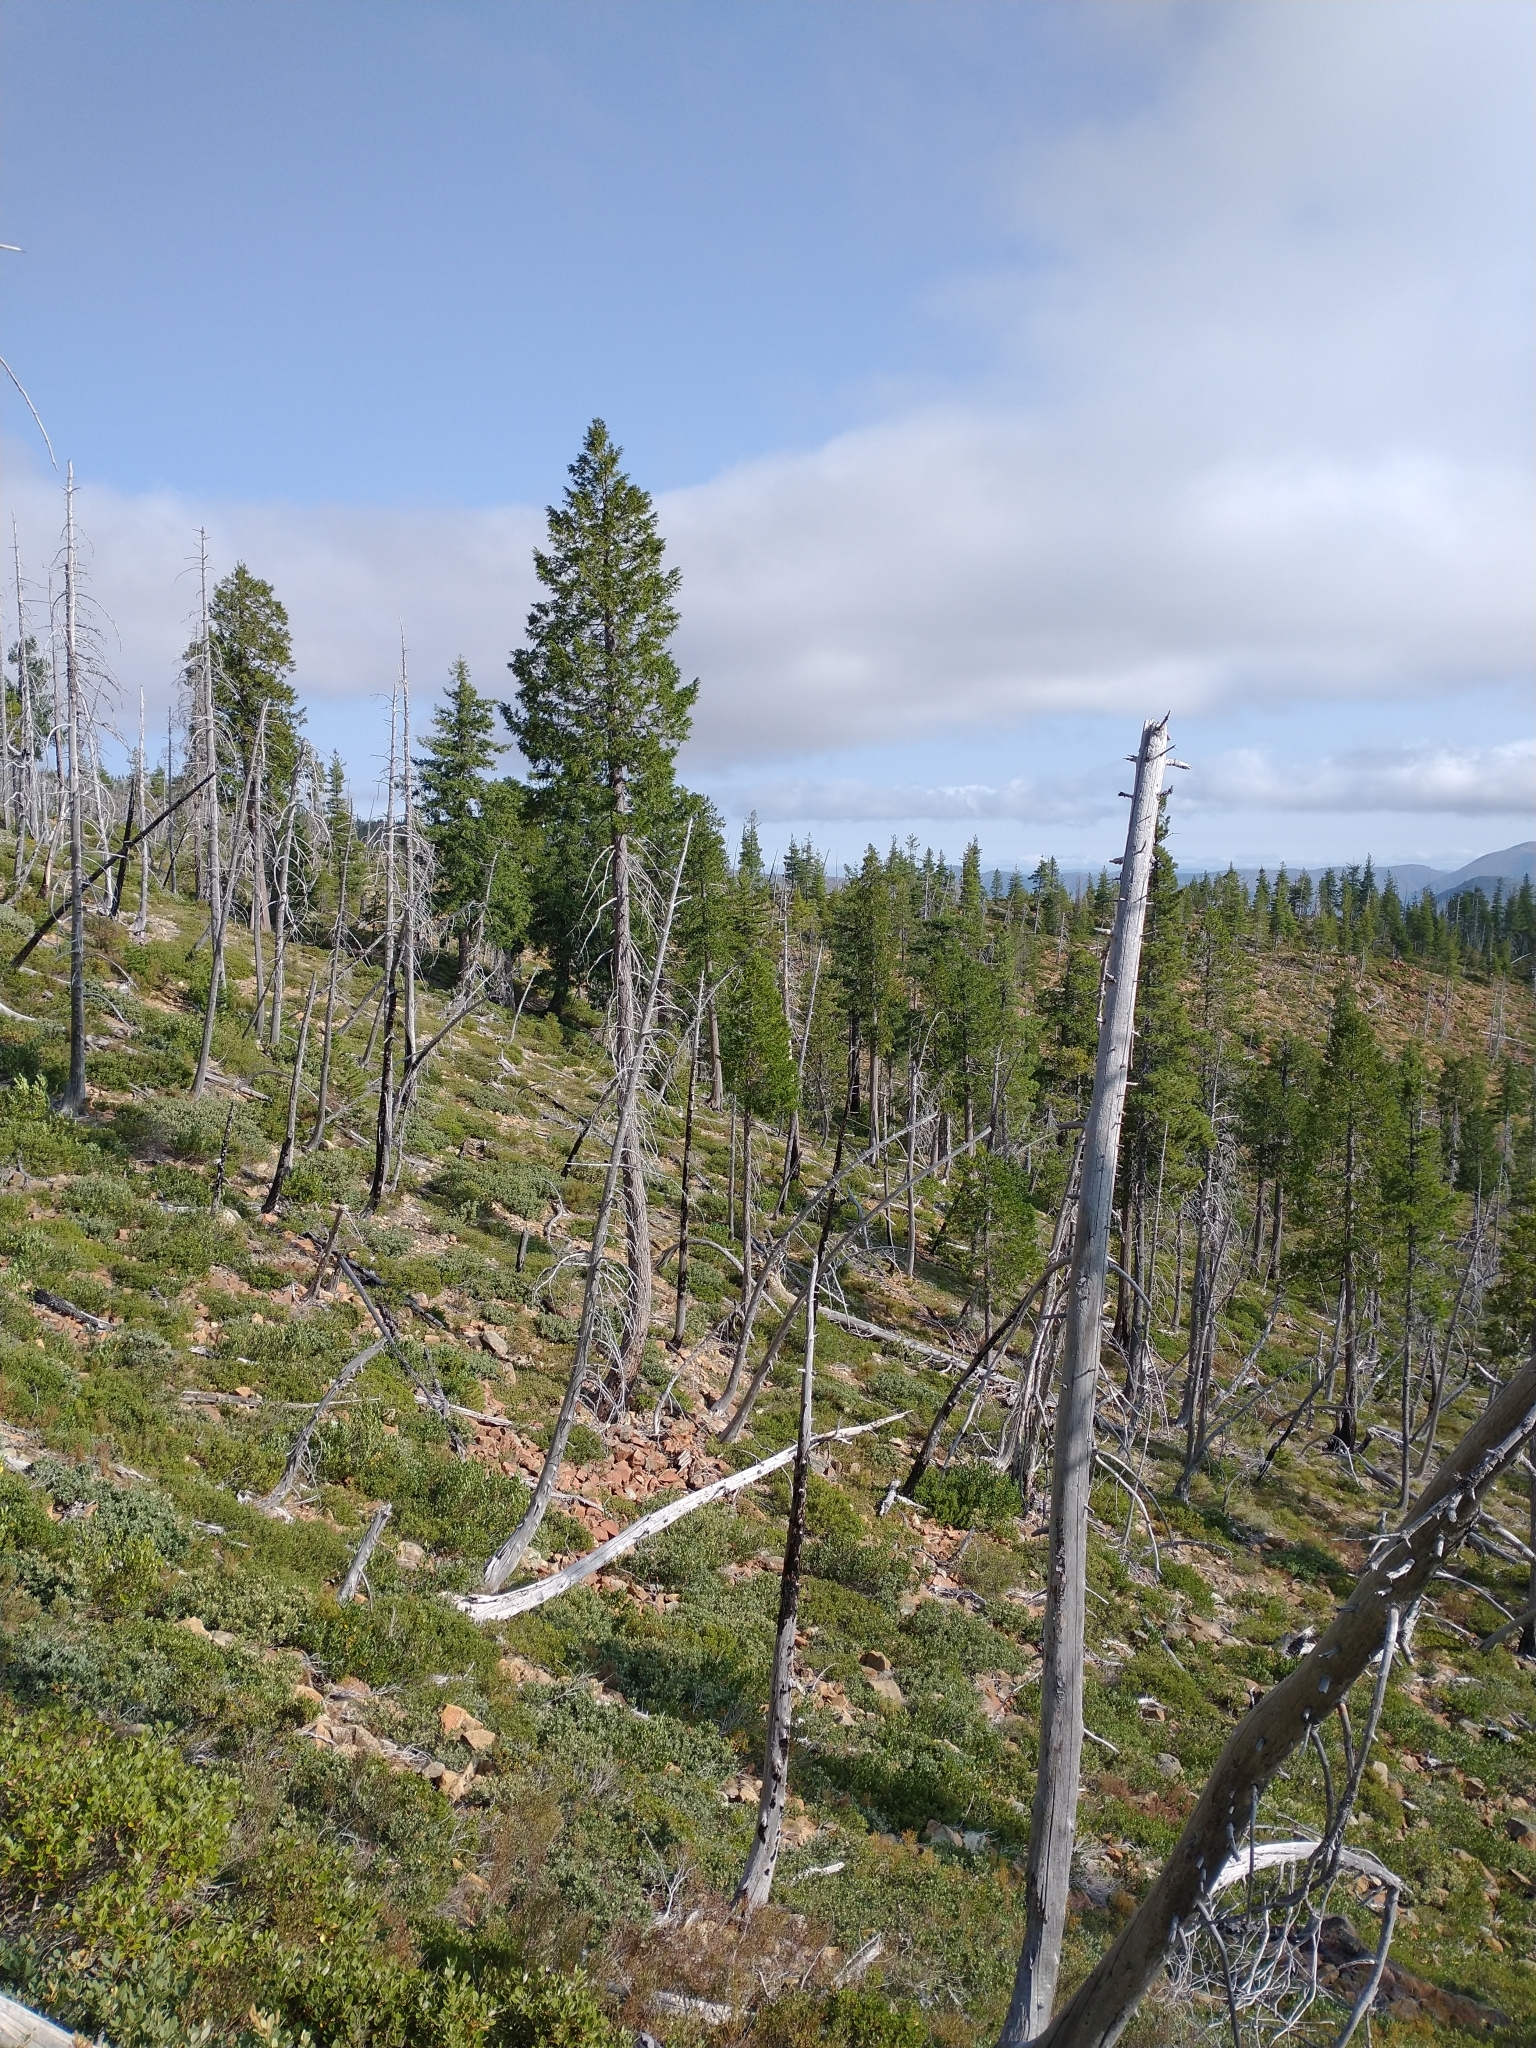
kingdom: Plantae
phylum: Tracheophyta
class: Pinopsida
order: Pinales
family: Cupressaceae
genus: Chamaecyparis
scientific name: Chamaecyparis lawsoniana
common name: Lawson's cypress
